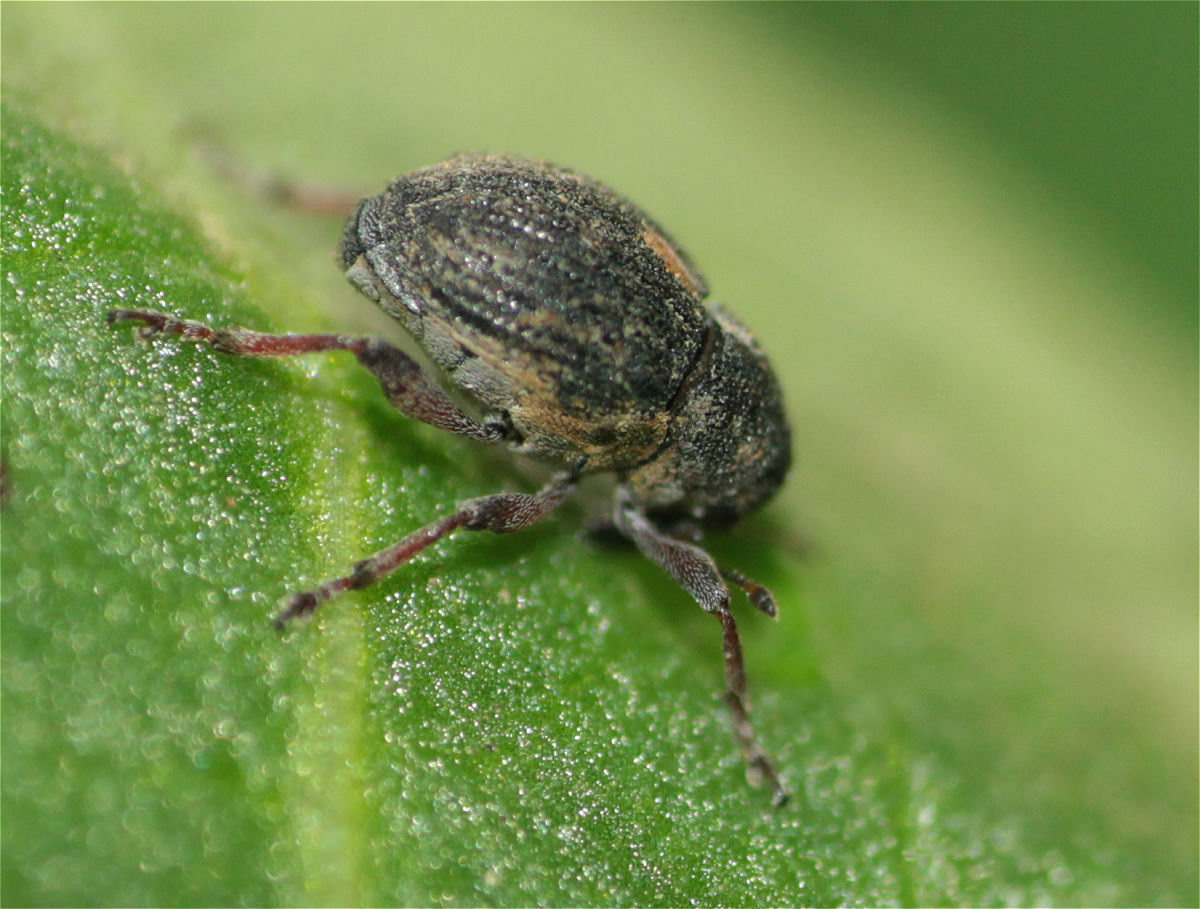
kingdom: Animalia
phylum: Arthropoda
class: Insecta
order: Coleoptera
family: Curculionidae
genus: Rhinoncus
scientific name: Rhinoncus leucostigma
